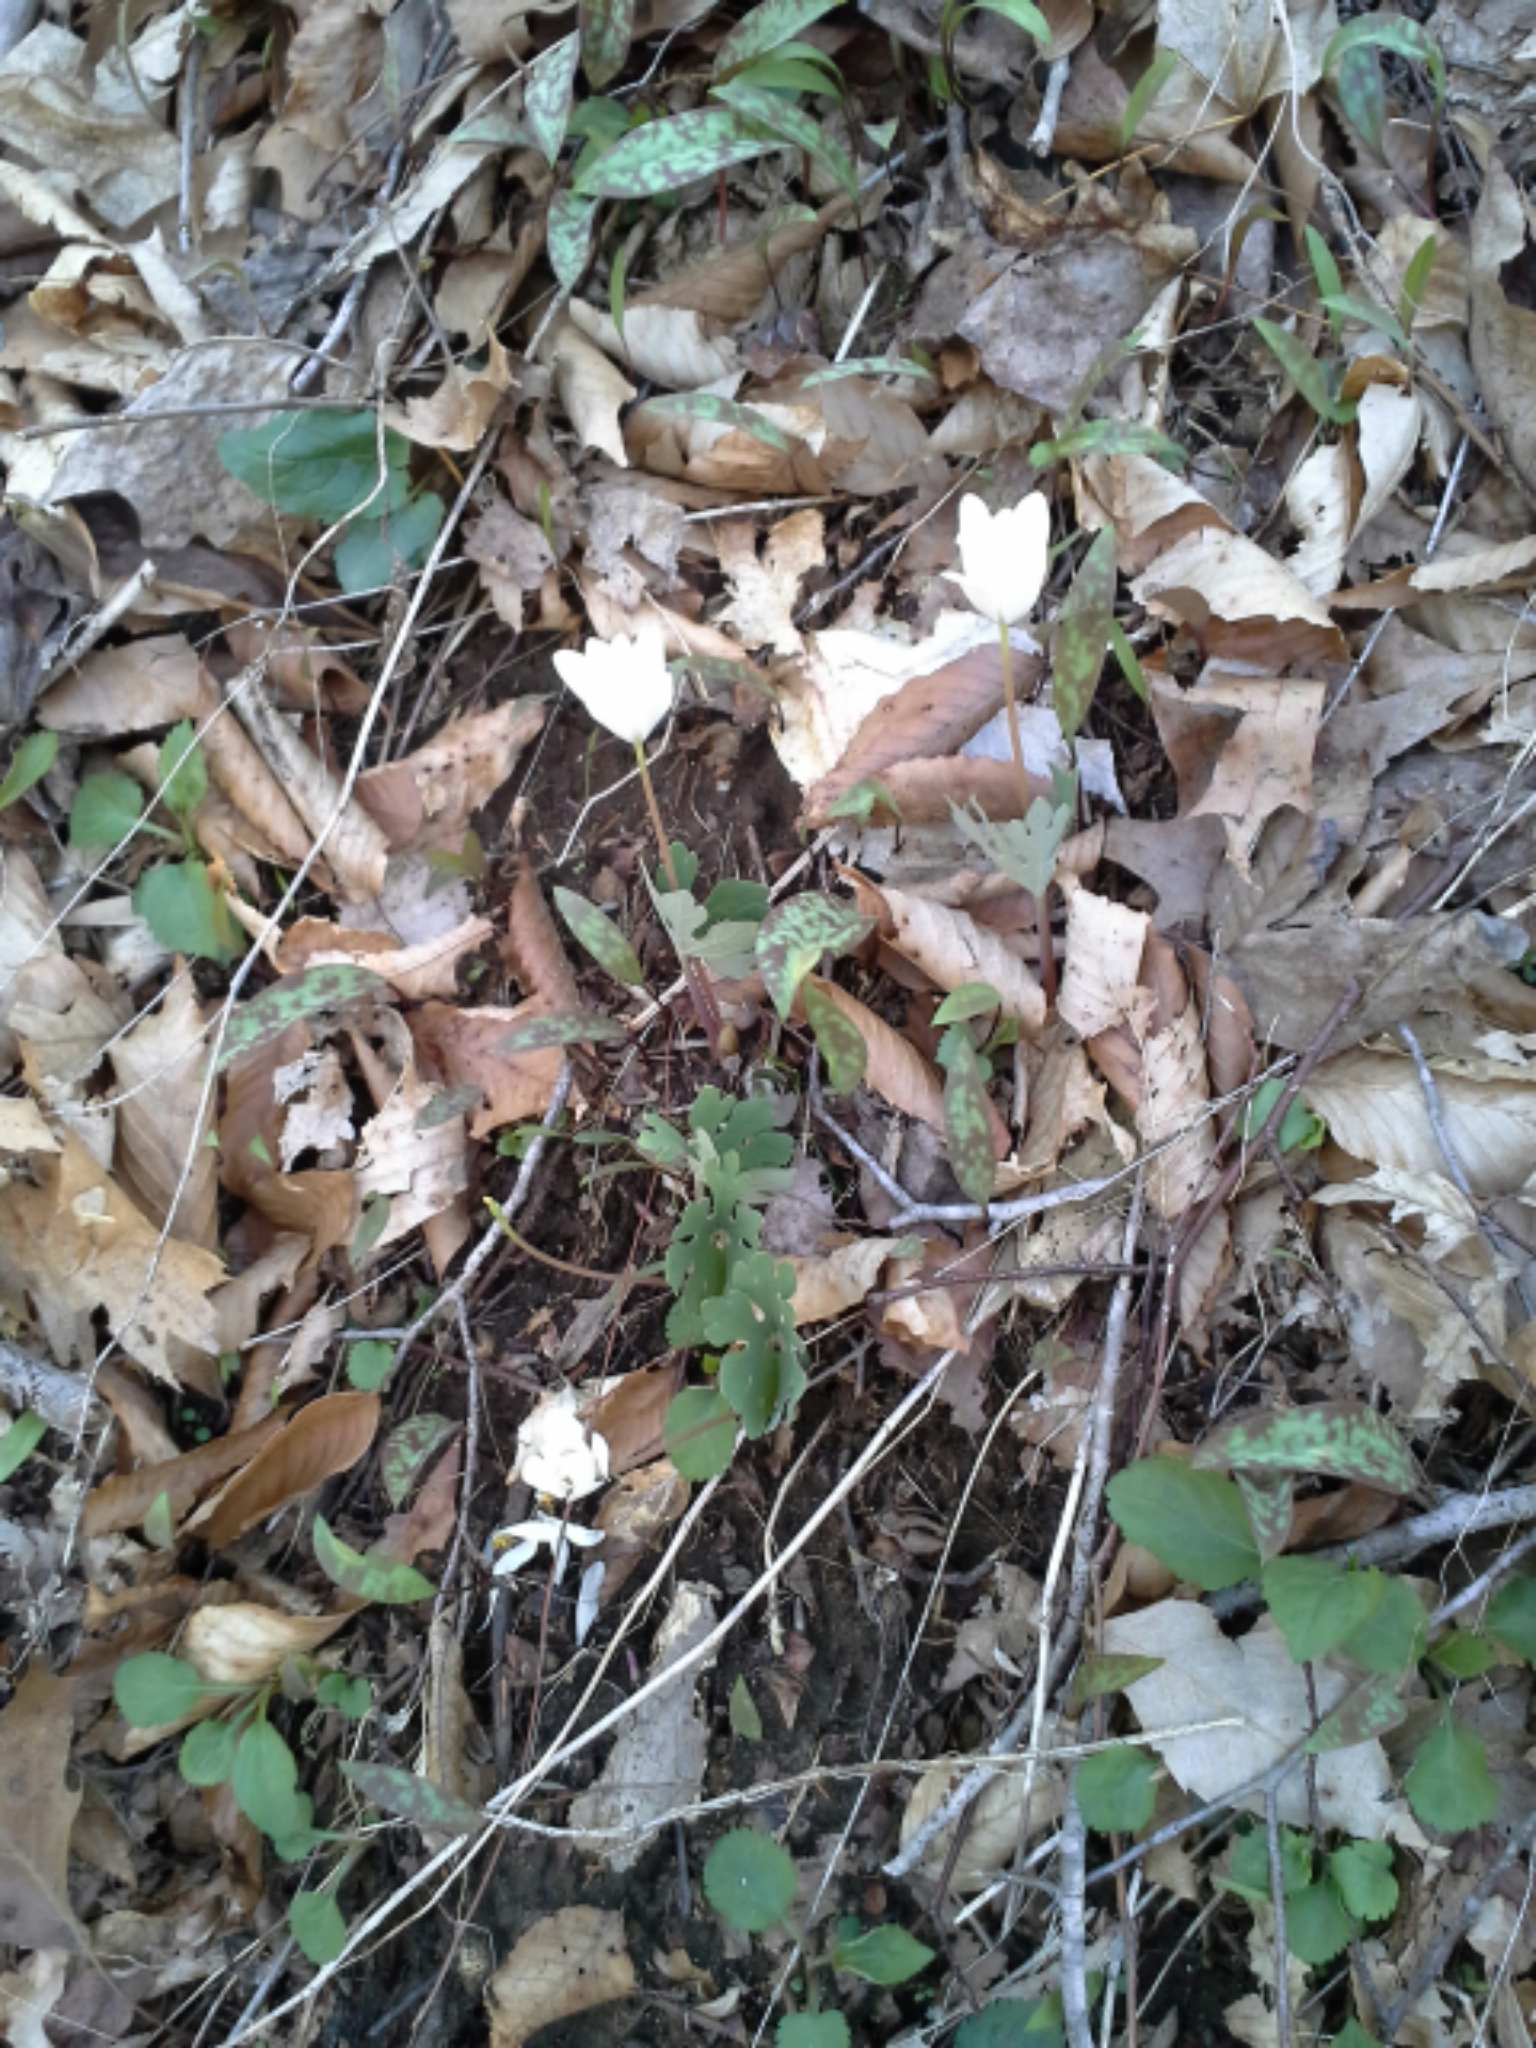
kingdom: Plantae
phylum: Tracheophyta
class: Magnoliopsida
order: Ranunculales
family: Papaveraceae
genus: Sanguinaria
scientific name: Sanguinaria canadensis
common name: Bloodroot
